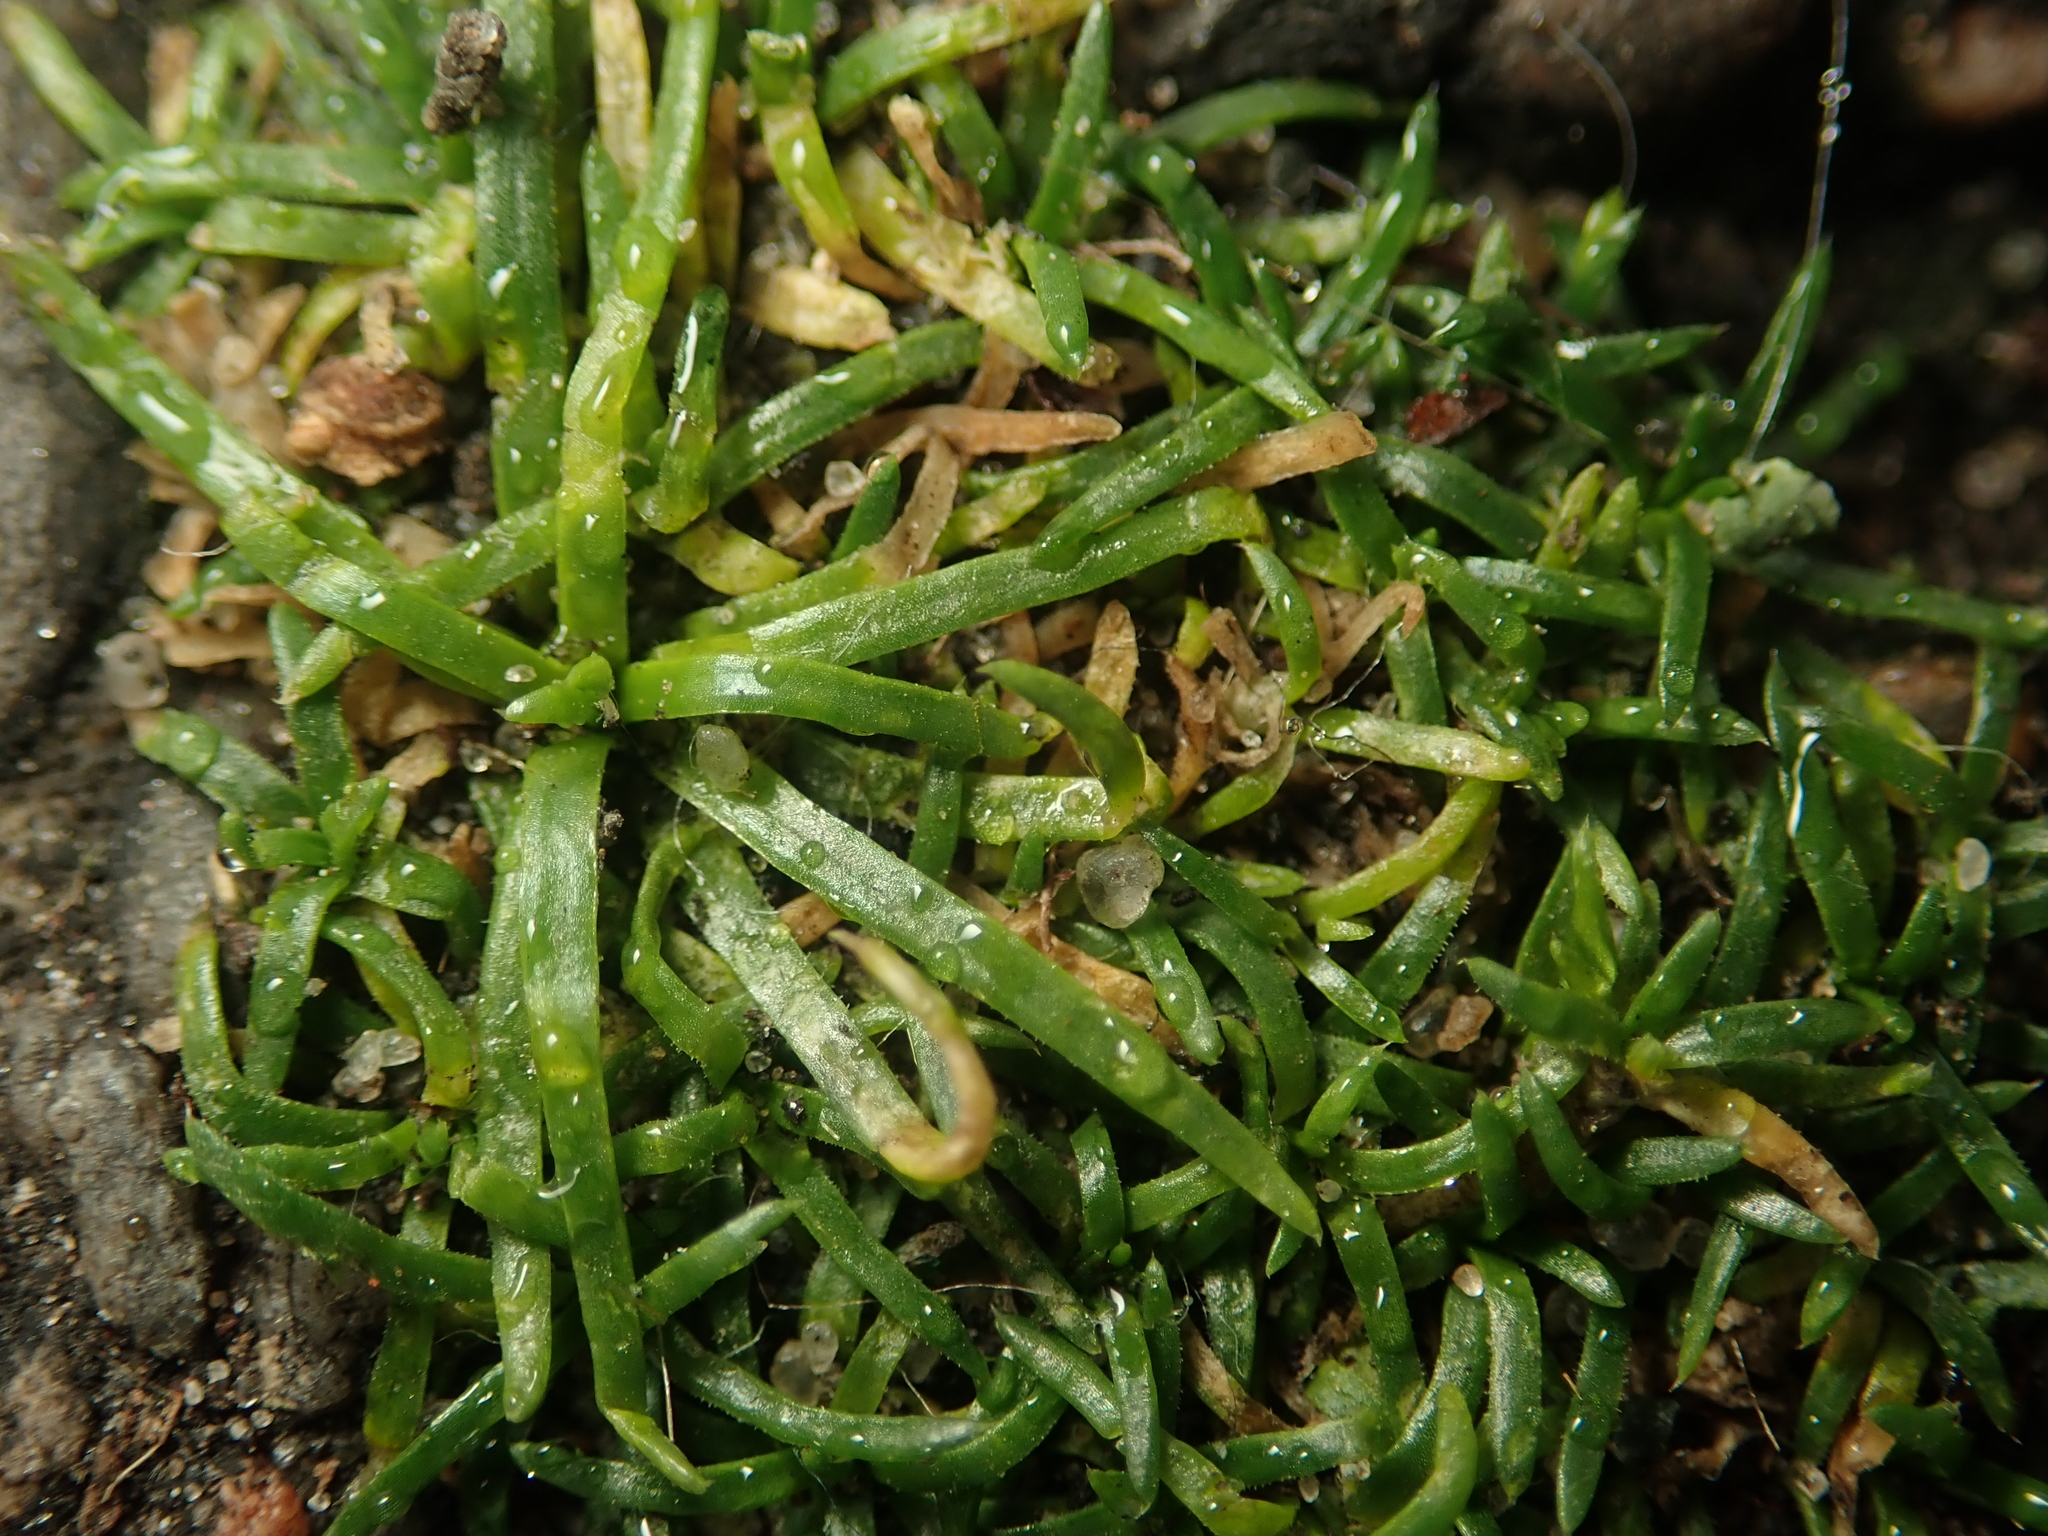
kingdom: Plantae
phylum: Tracheophyta
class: Magnoliopsida
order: Caryophyllales
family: Caryophyllaceae
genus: Sagina
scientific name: Sagina procumbens
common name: Procumbent pearlwort
